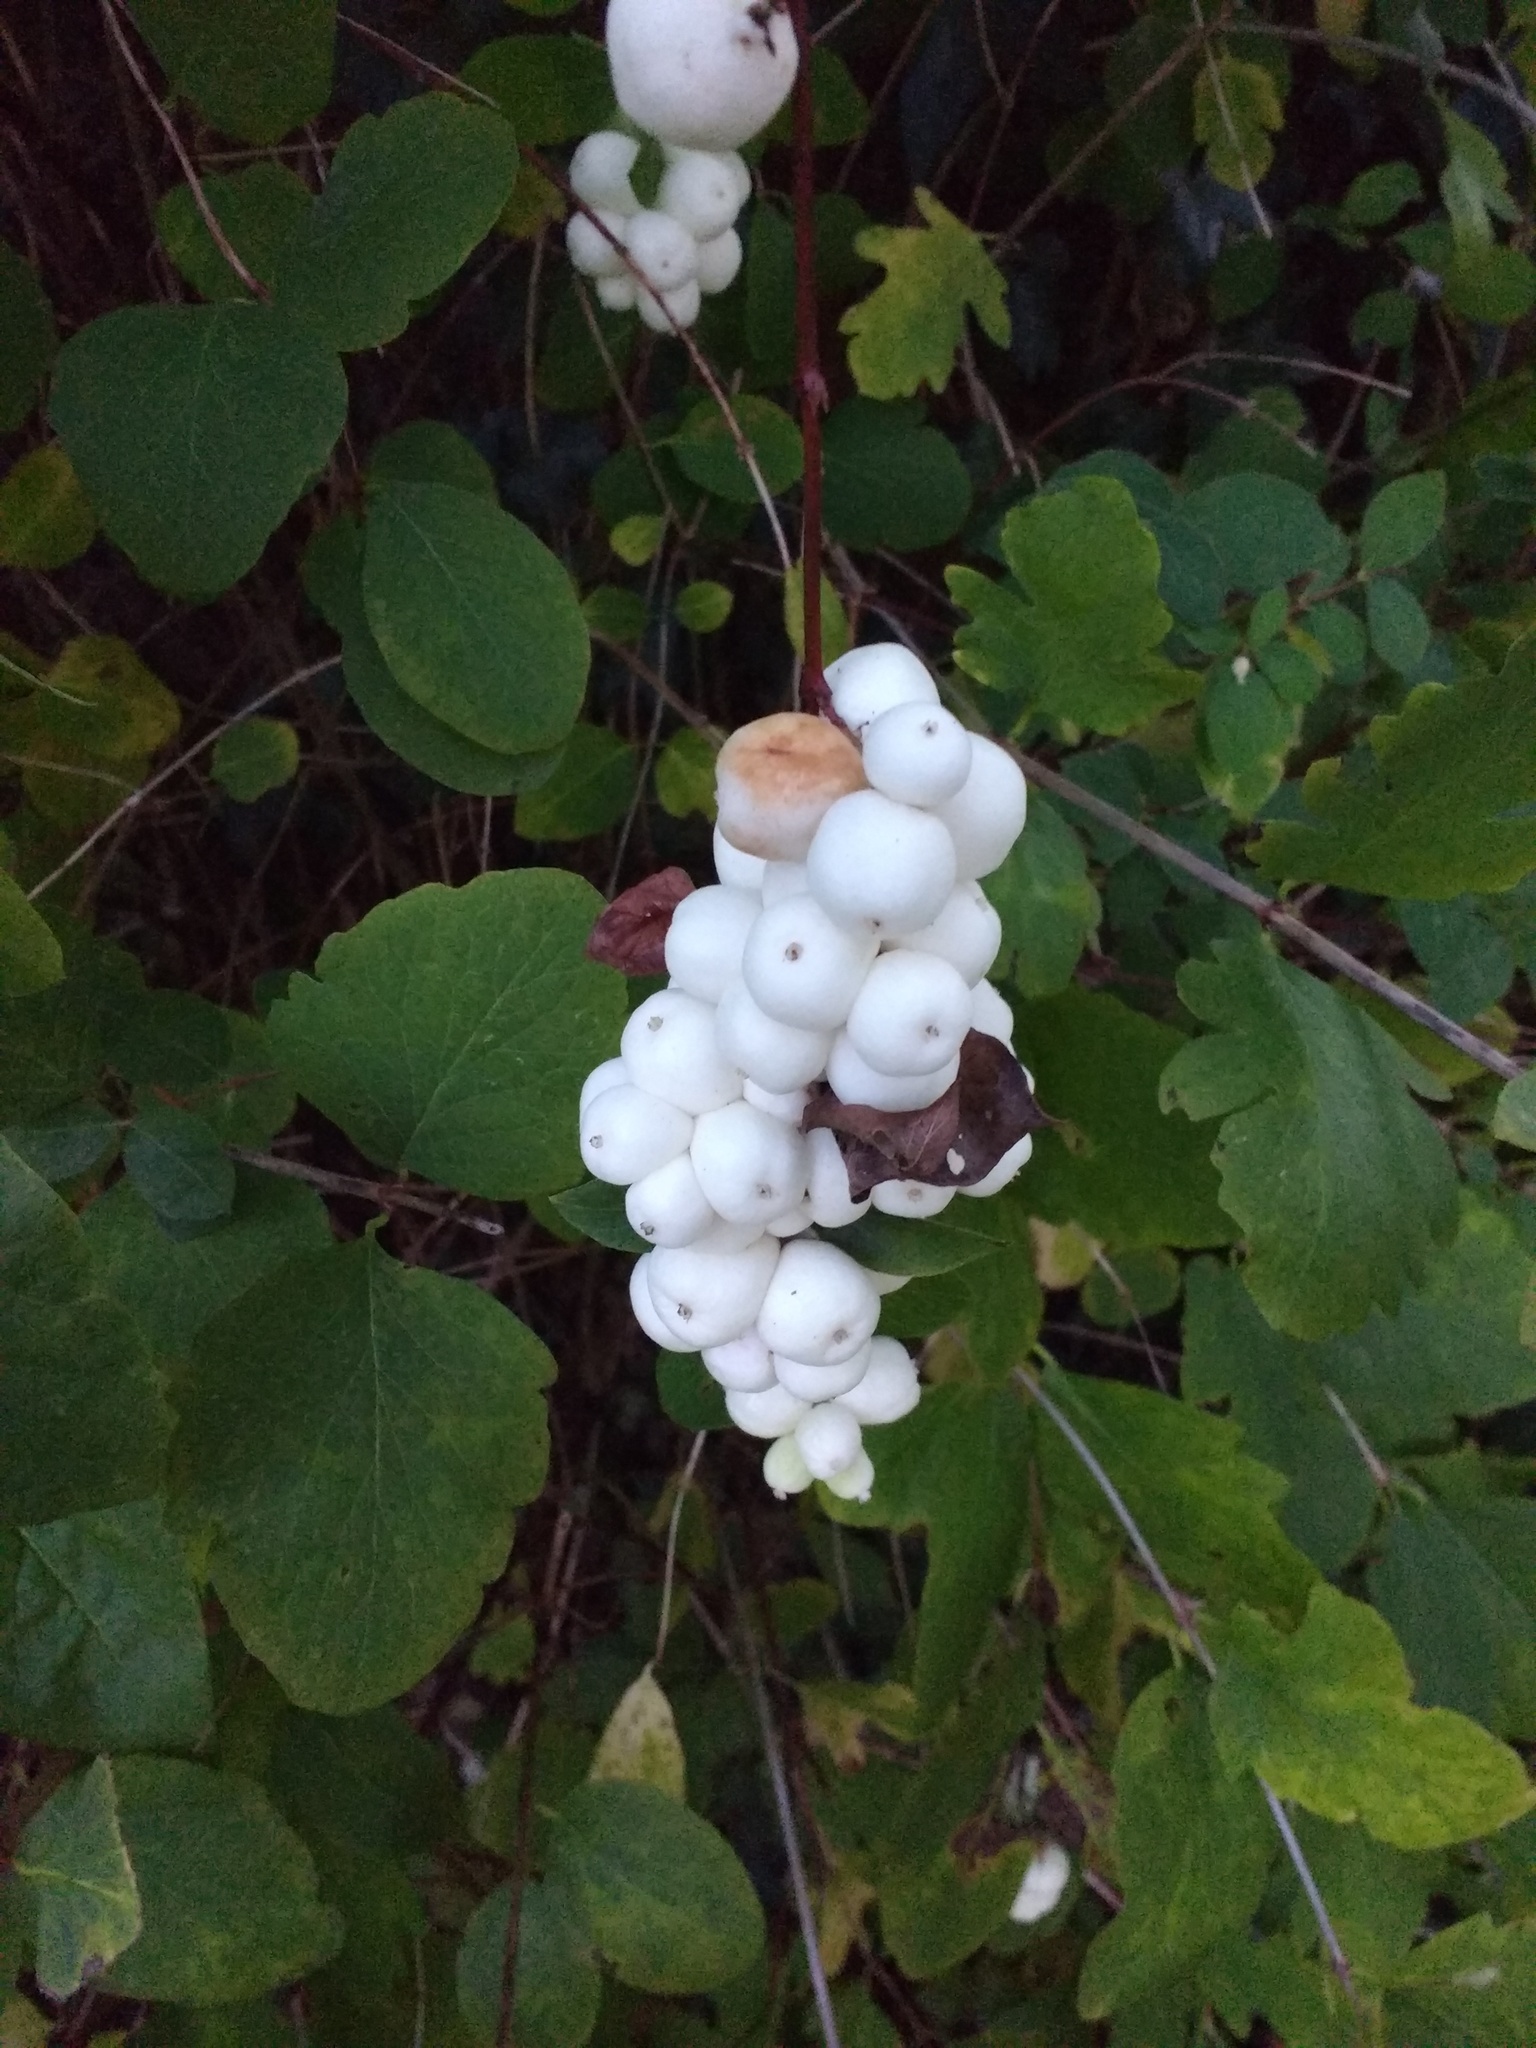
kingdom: Plantae
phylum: Tracheophyta
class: Magnoliopsida
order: Dipsacales
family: Caprifoliaceae
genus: Symphoricarpos
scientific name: Symphoricarpos albus
